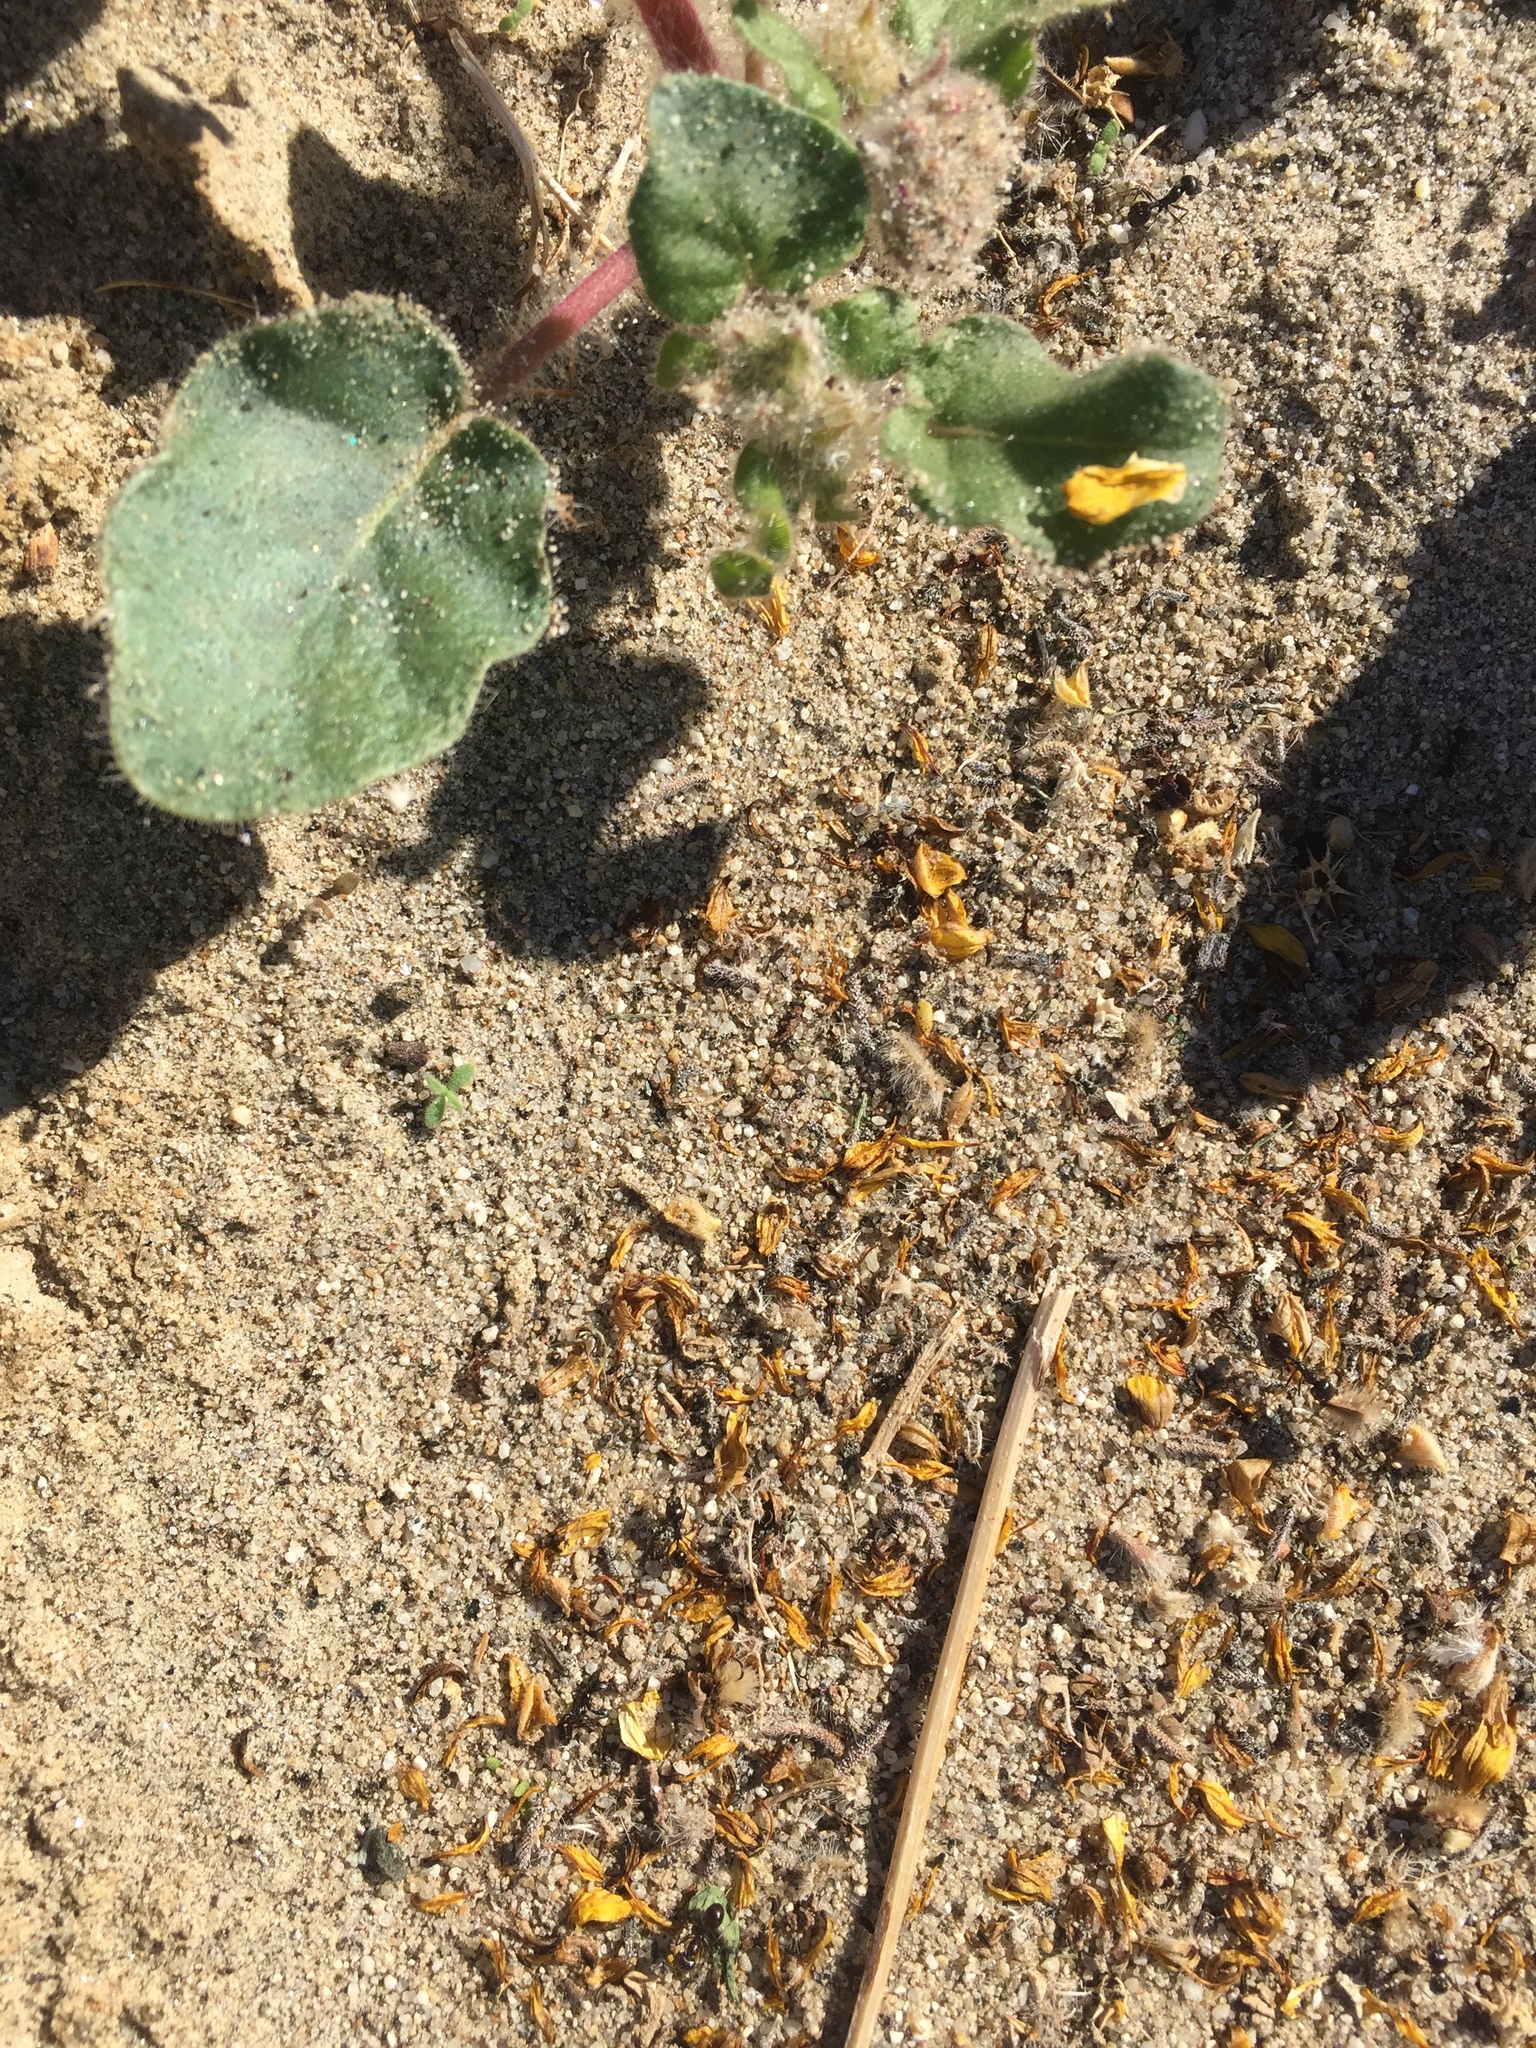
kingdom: Animalia
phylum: Arthropoda
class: Insecta
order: Hymenoptera
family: Formicidae
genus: Messor
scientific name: Messor pergandei
